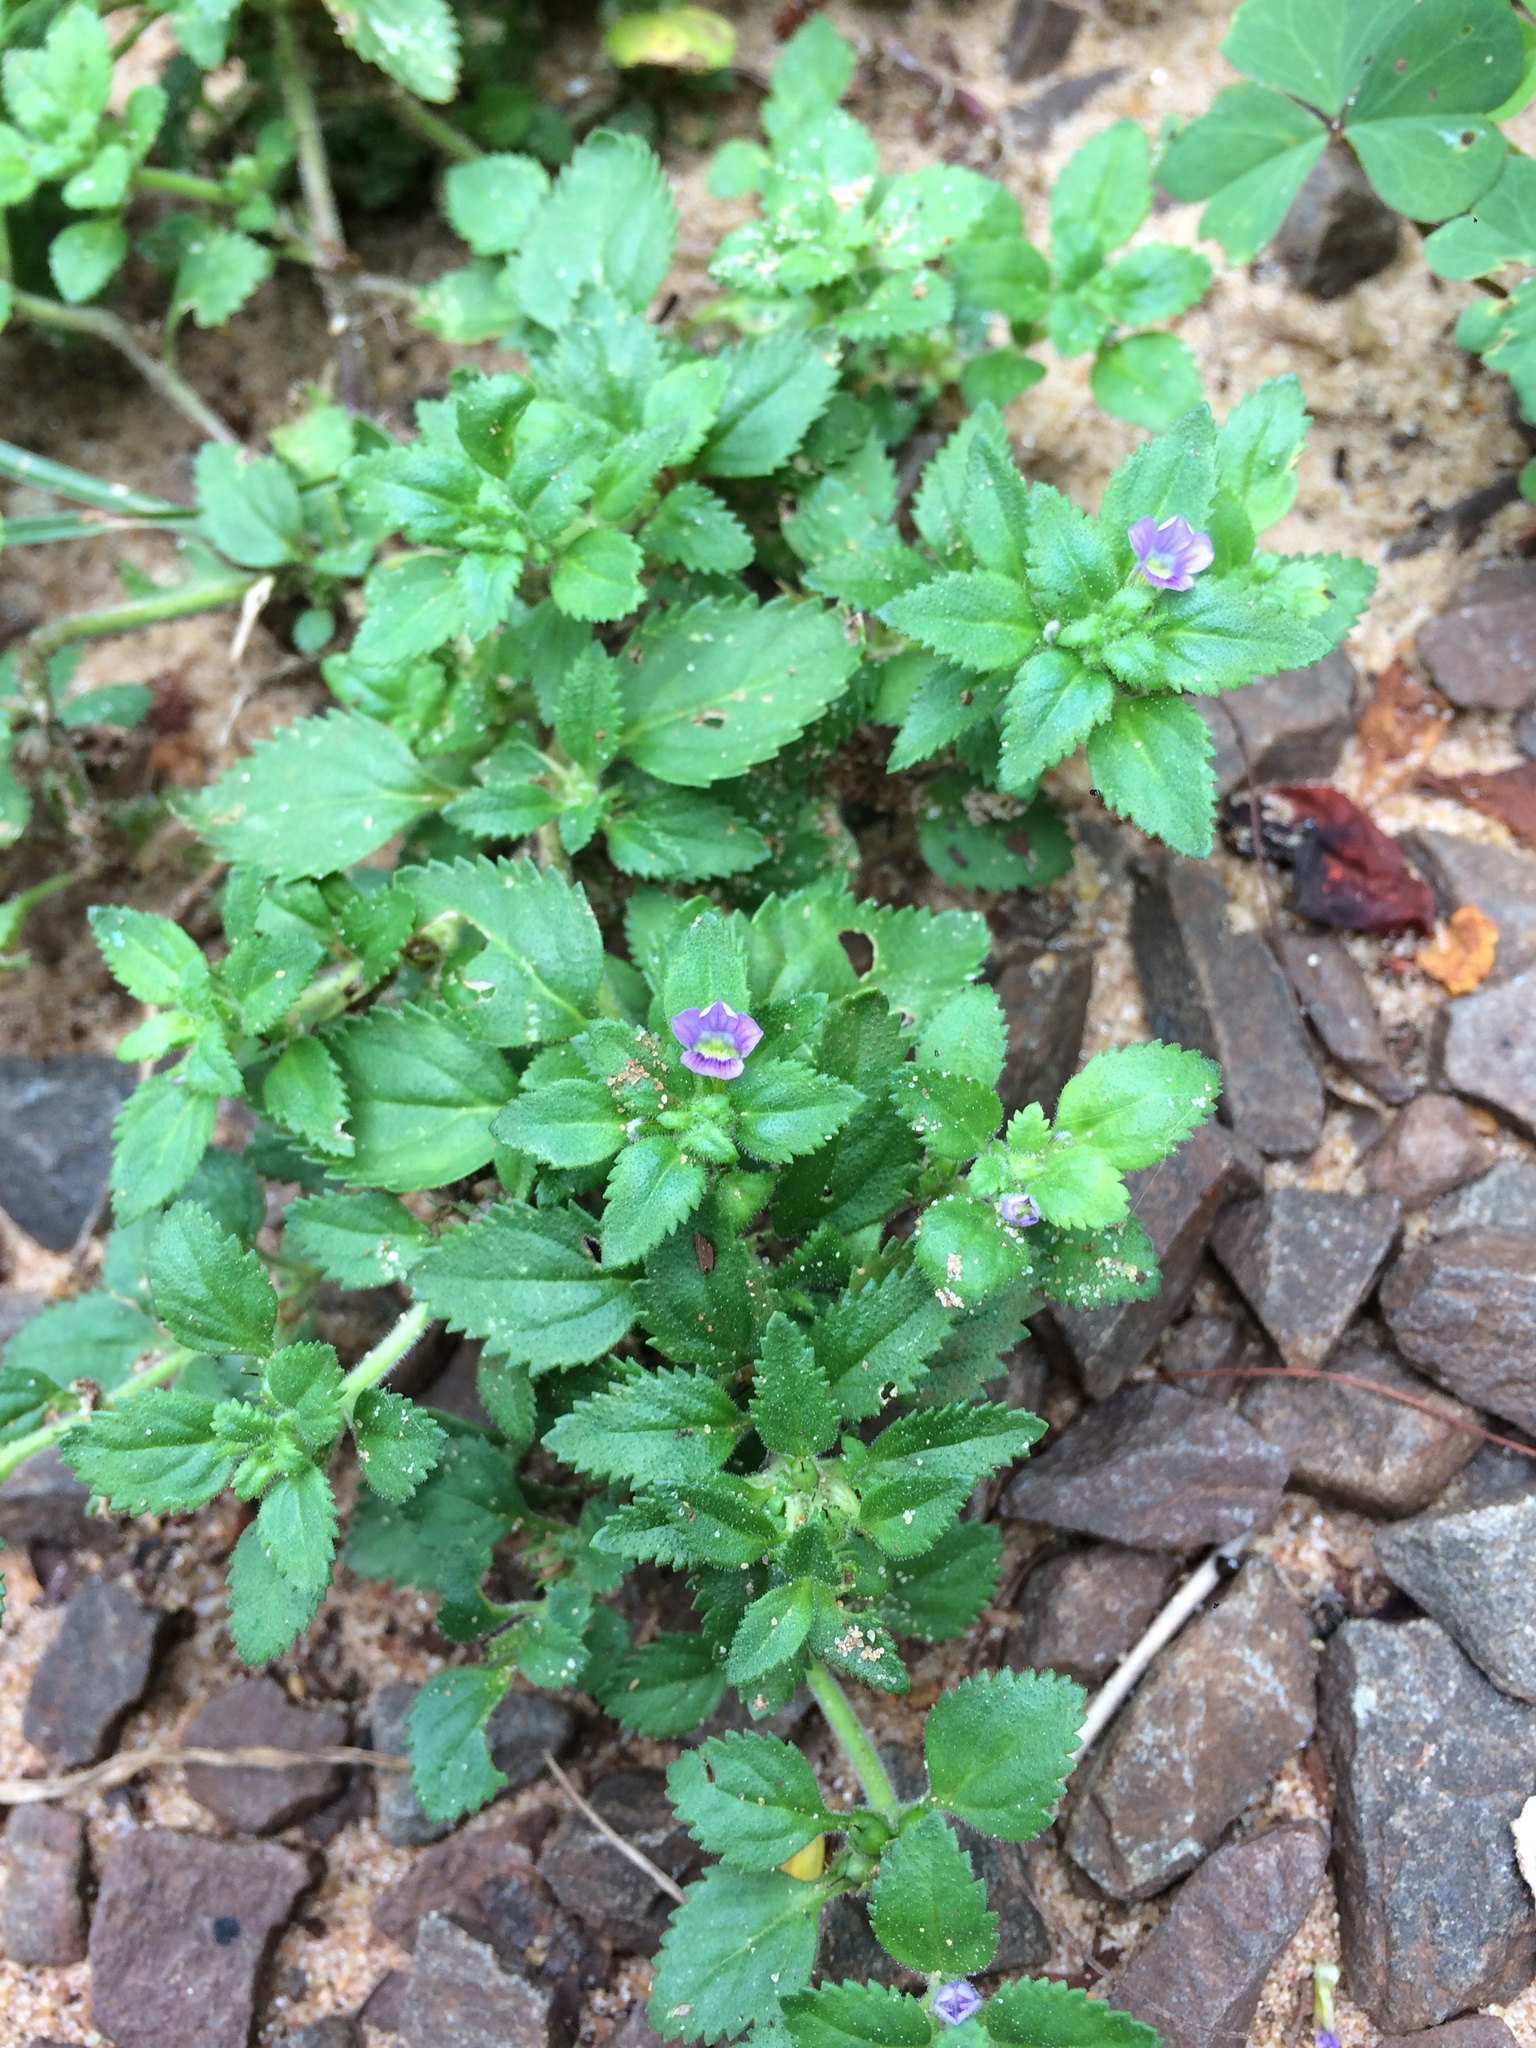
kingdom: Plantae
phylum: Tracheophyta
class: Magnoliopsida
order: Lamiales
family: Plantaginaceae
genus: Stemodia
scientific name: Stemodia verticillata
